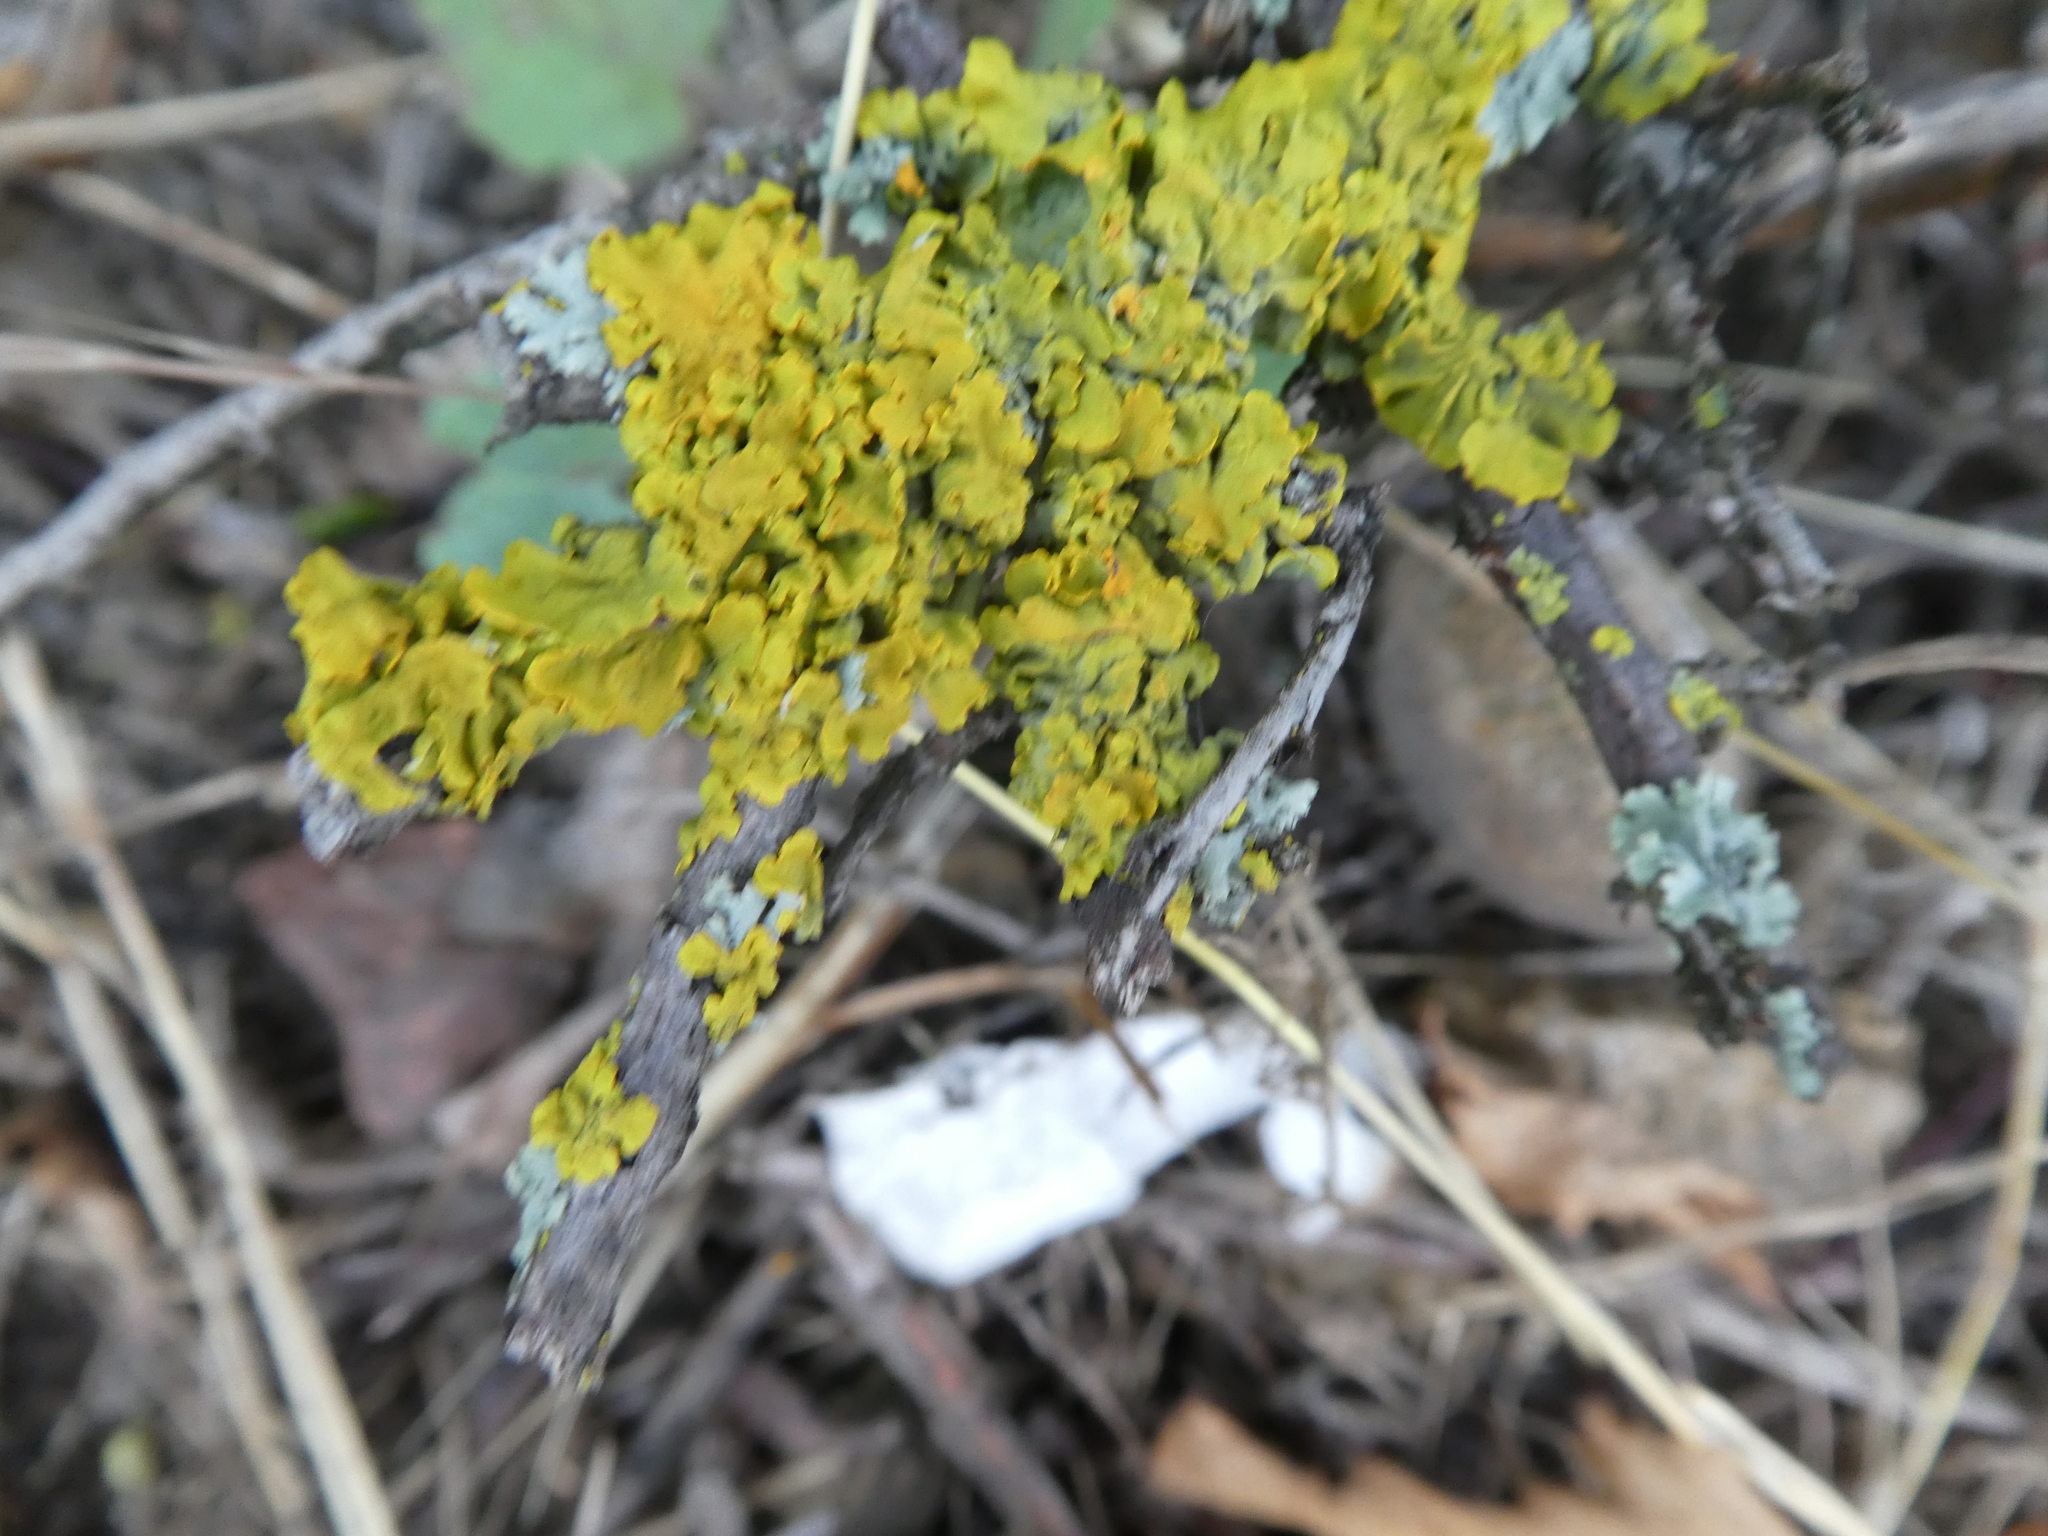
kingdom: Fungi
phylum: Ascomycota
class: Lecanoromycetes
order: Teloschistales
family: Teloschistaceae
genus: Xanthoria
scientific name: Xanthoria parietina
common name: Common orange lichen
